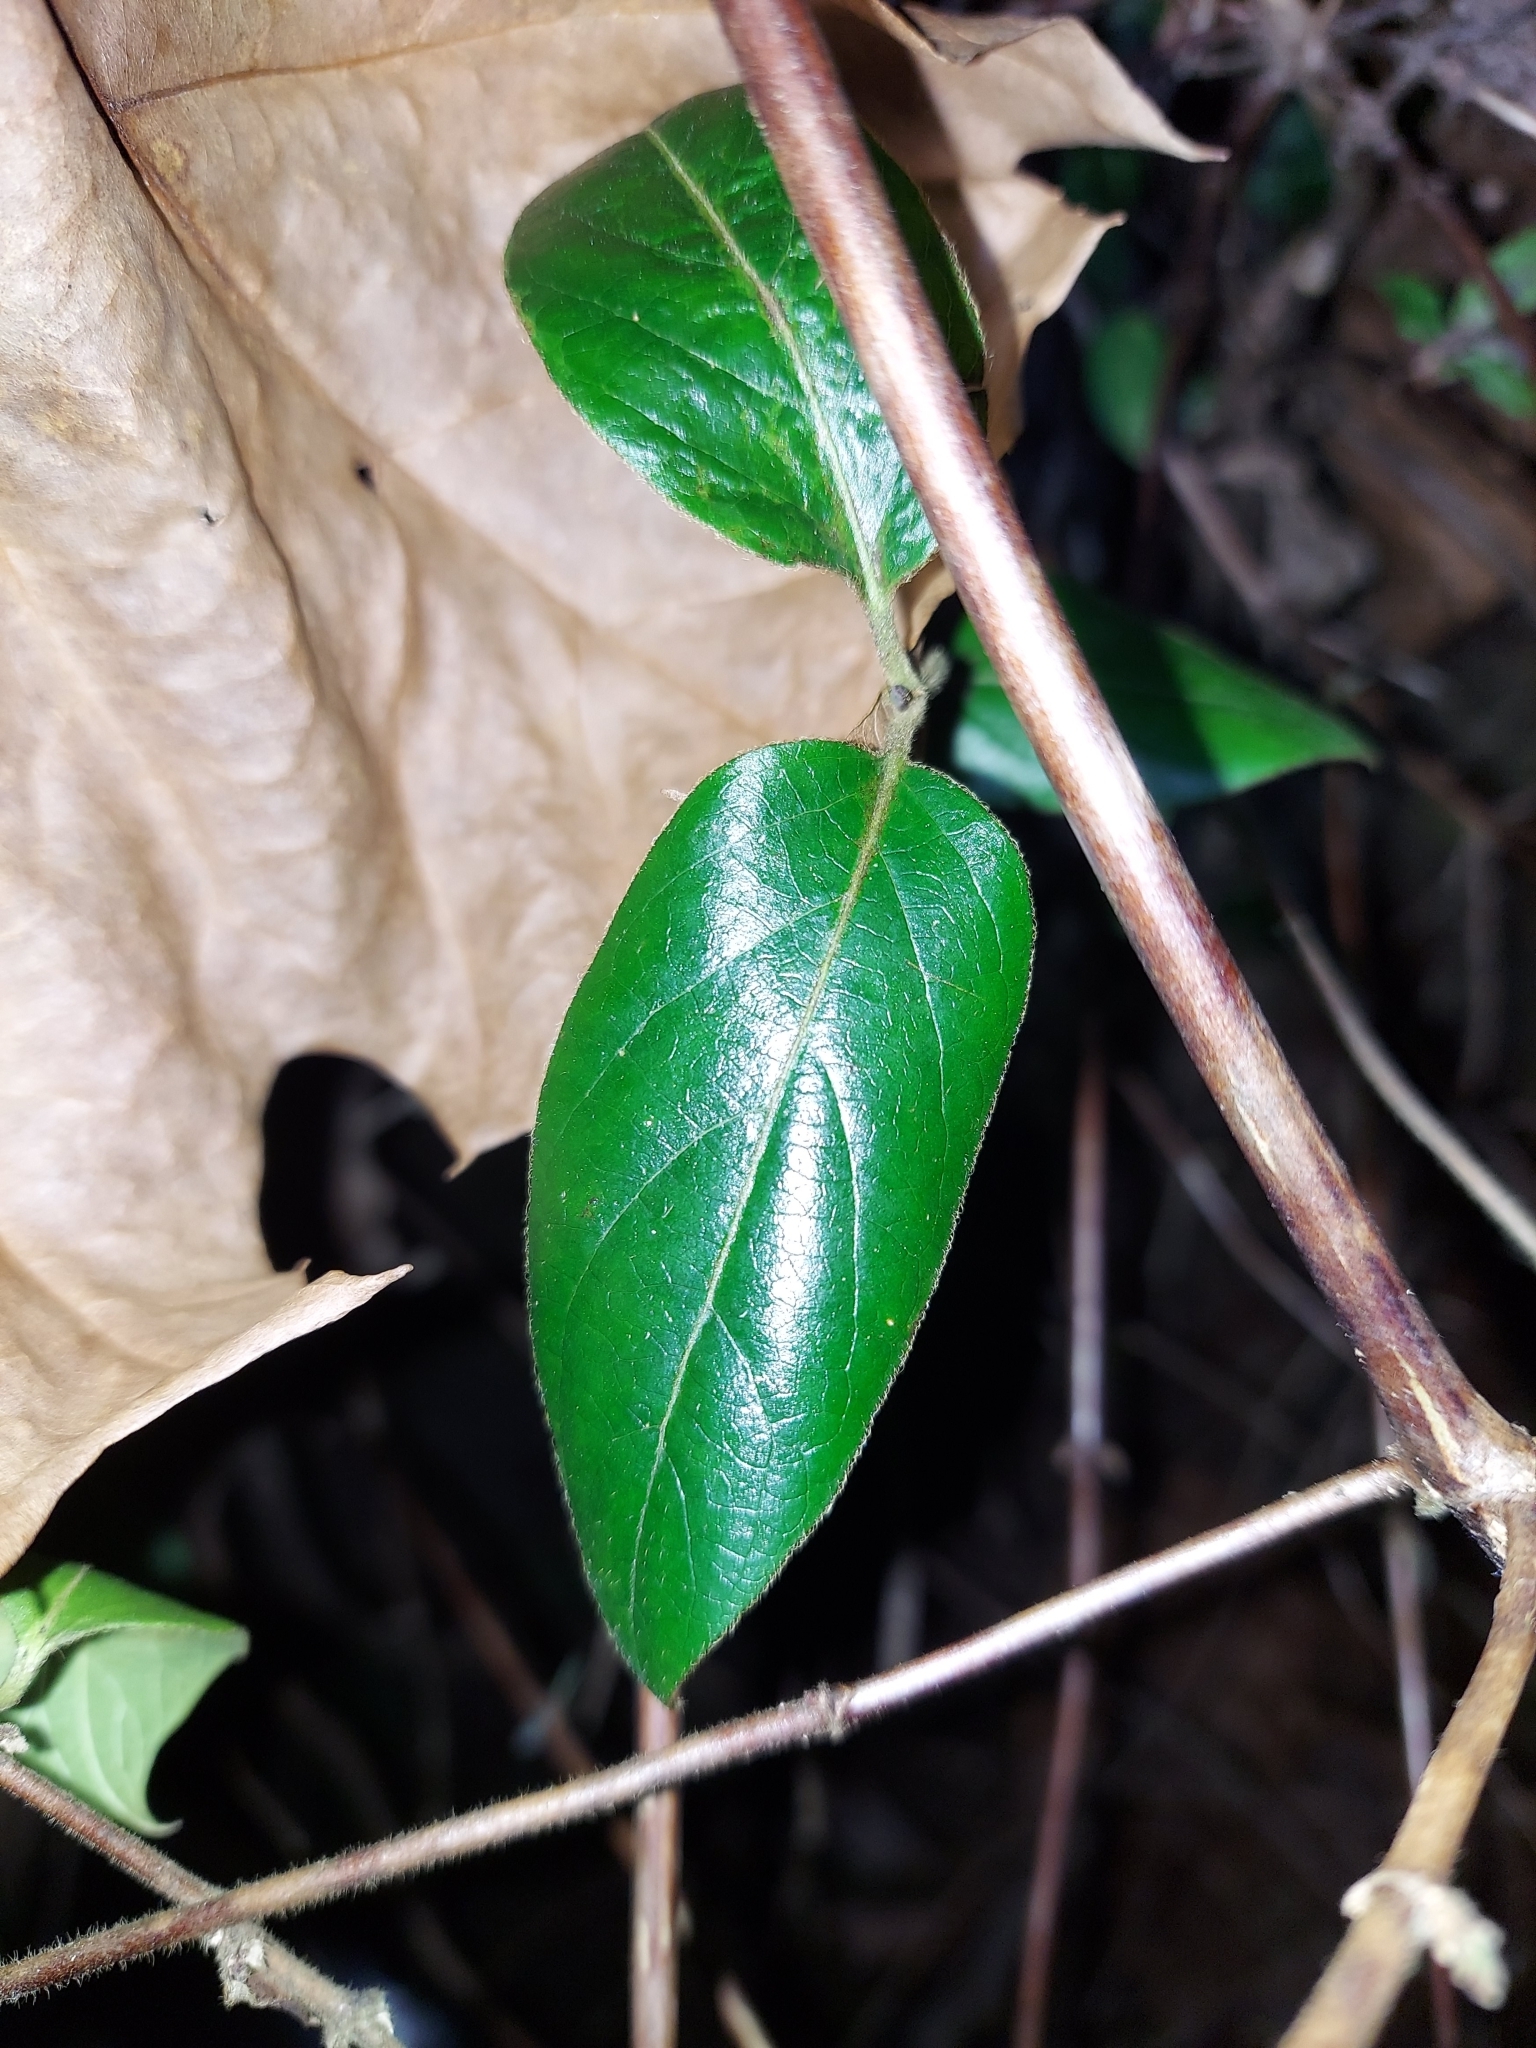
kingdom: Plantae
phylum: Tracheophyta
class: Magnoliopsida
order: Dipsacales
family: Caprifoliaceae
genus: Lonicera
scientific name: Lonicera japonica
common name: Japanese honeysuckle
